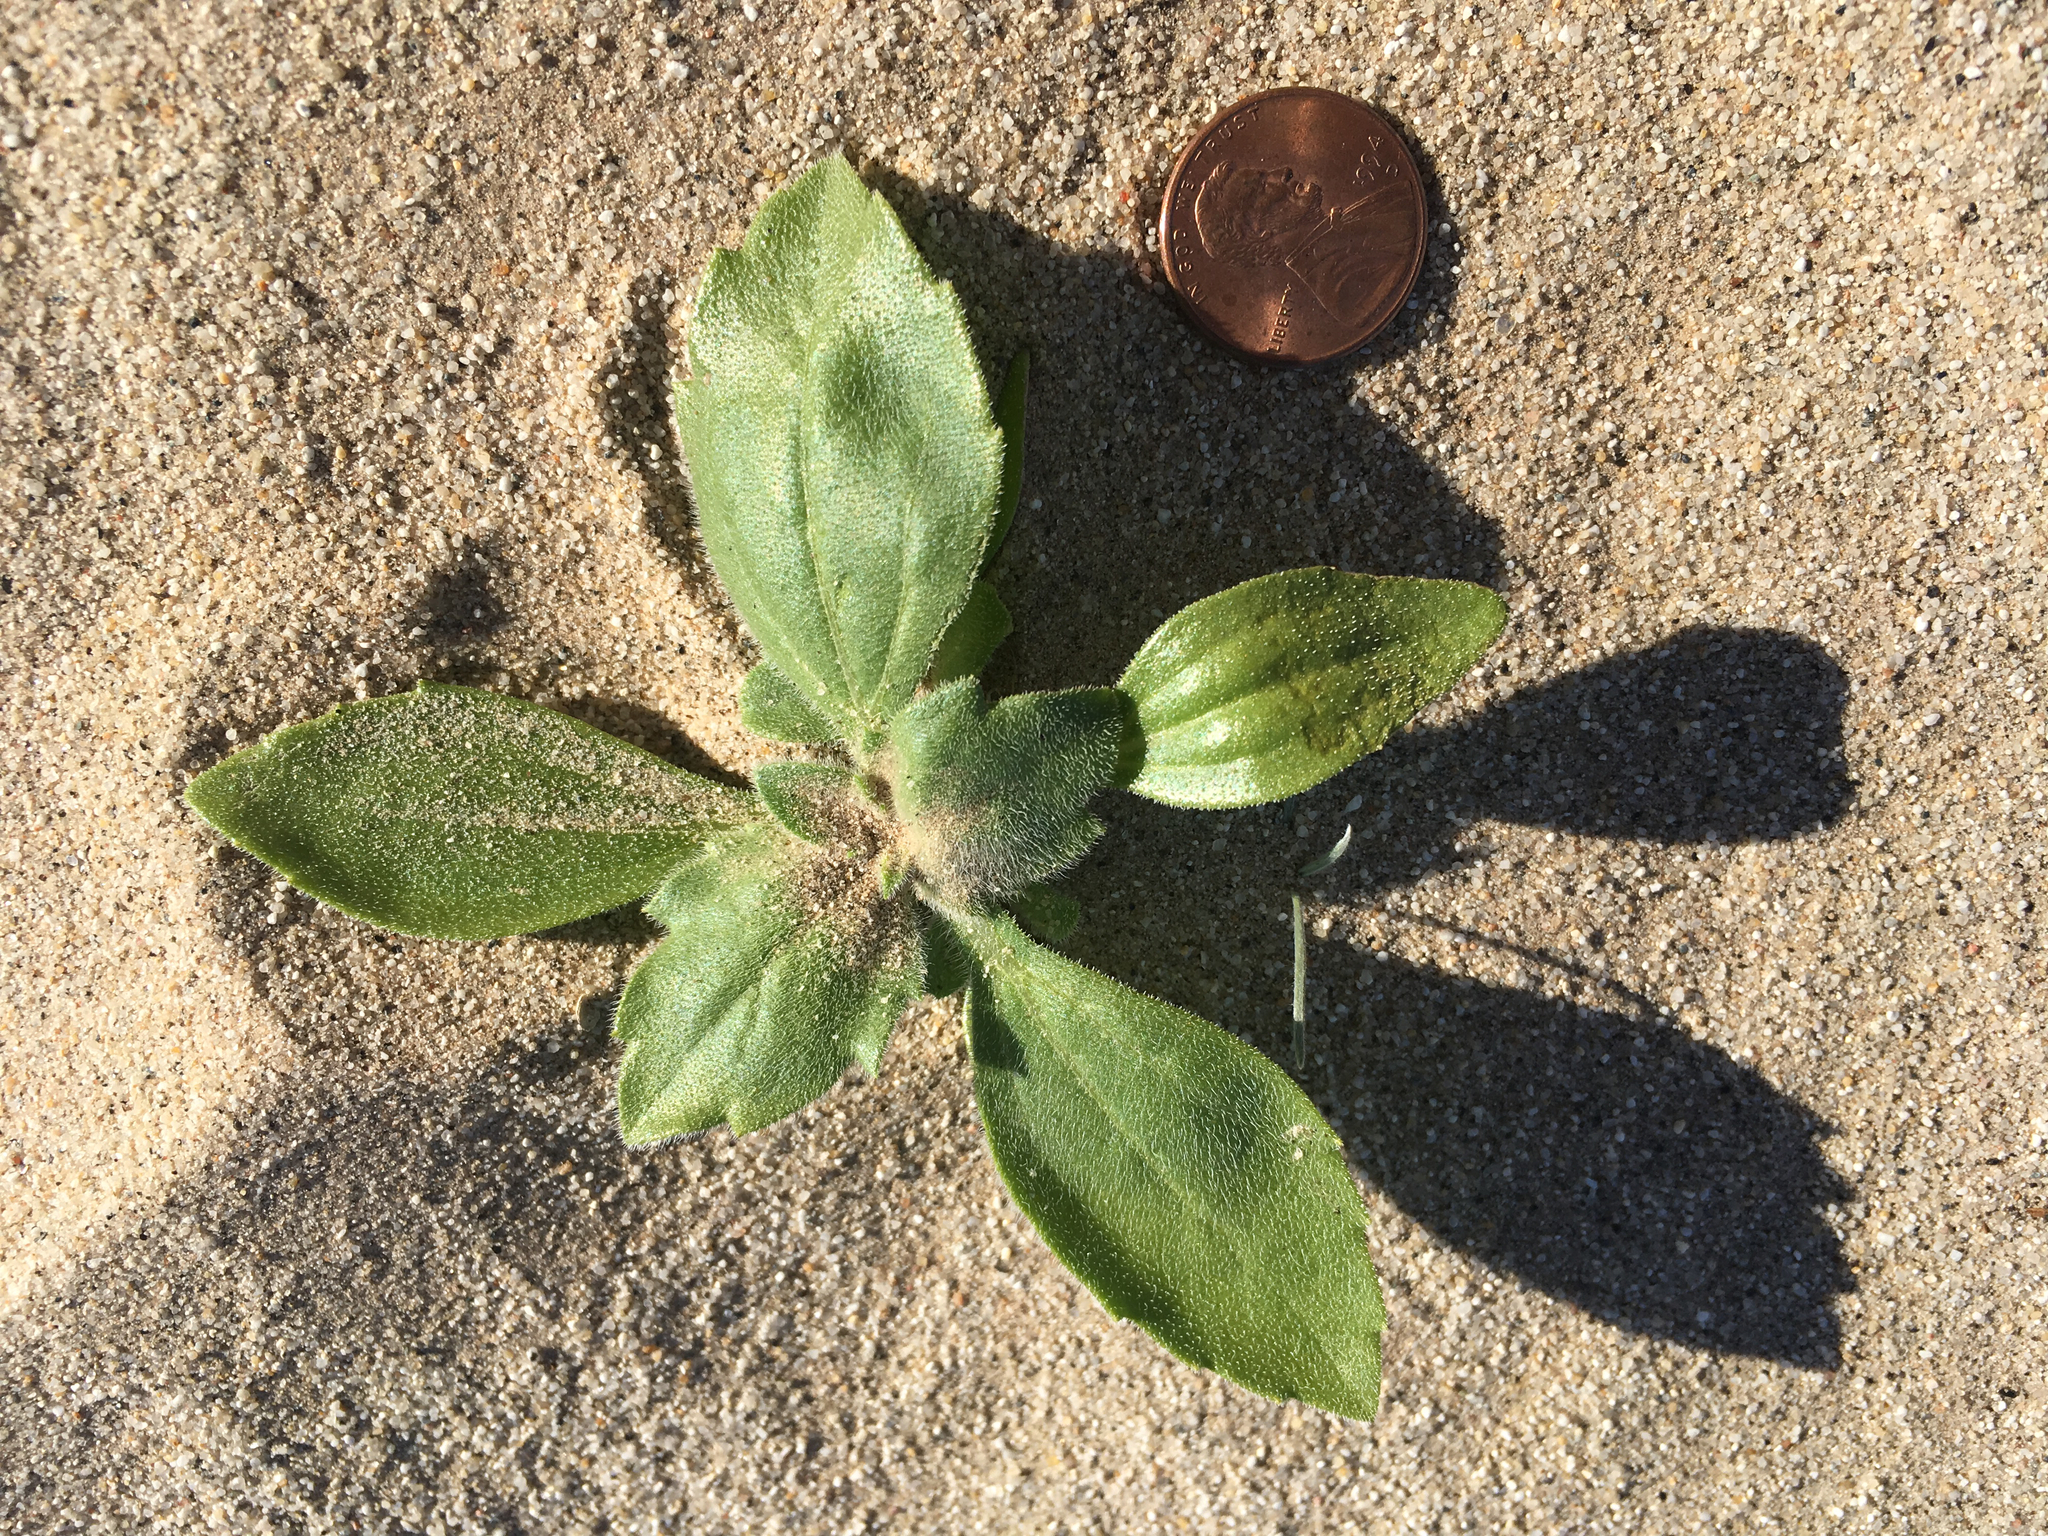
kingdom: Plantae
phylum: Tracheophyta
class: Magnoliopsida
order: Asterales
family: Asteraceae
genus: Geraea
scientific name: Geraea canescens
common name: Desert-gold
